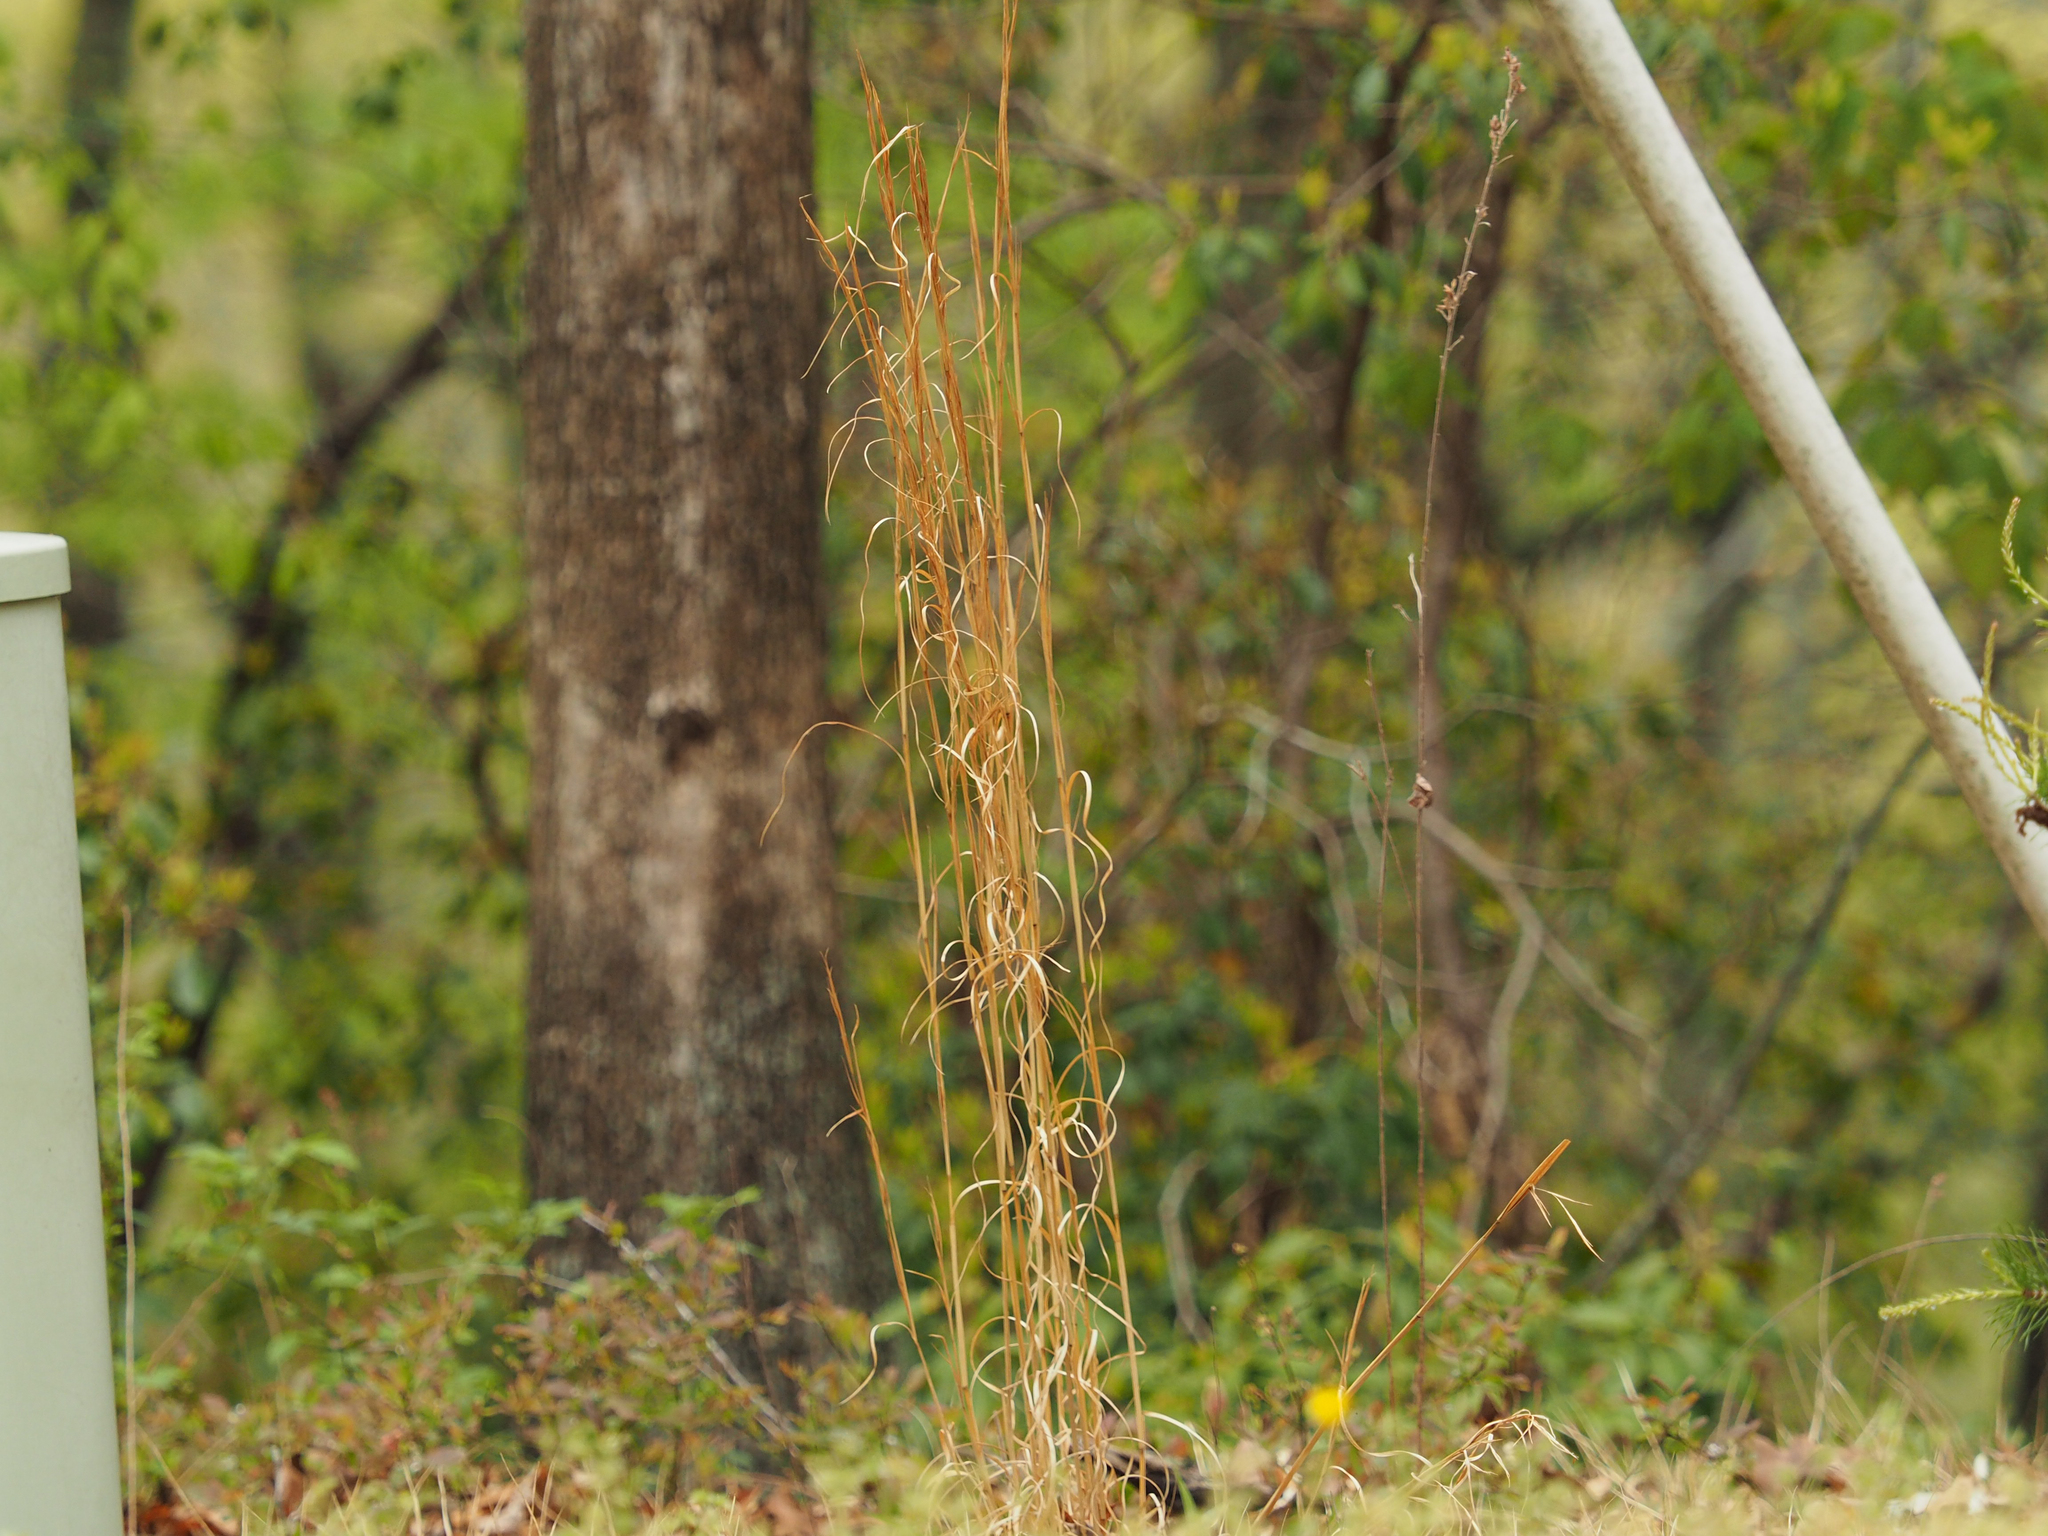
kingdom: Plantae
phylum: Tracheophyta
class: Liliopsida
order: Poales
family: Poaceae
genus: Andropogon
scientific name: Andropogon virginicus
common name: Broomsedge bluestem
